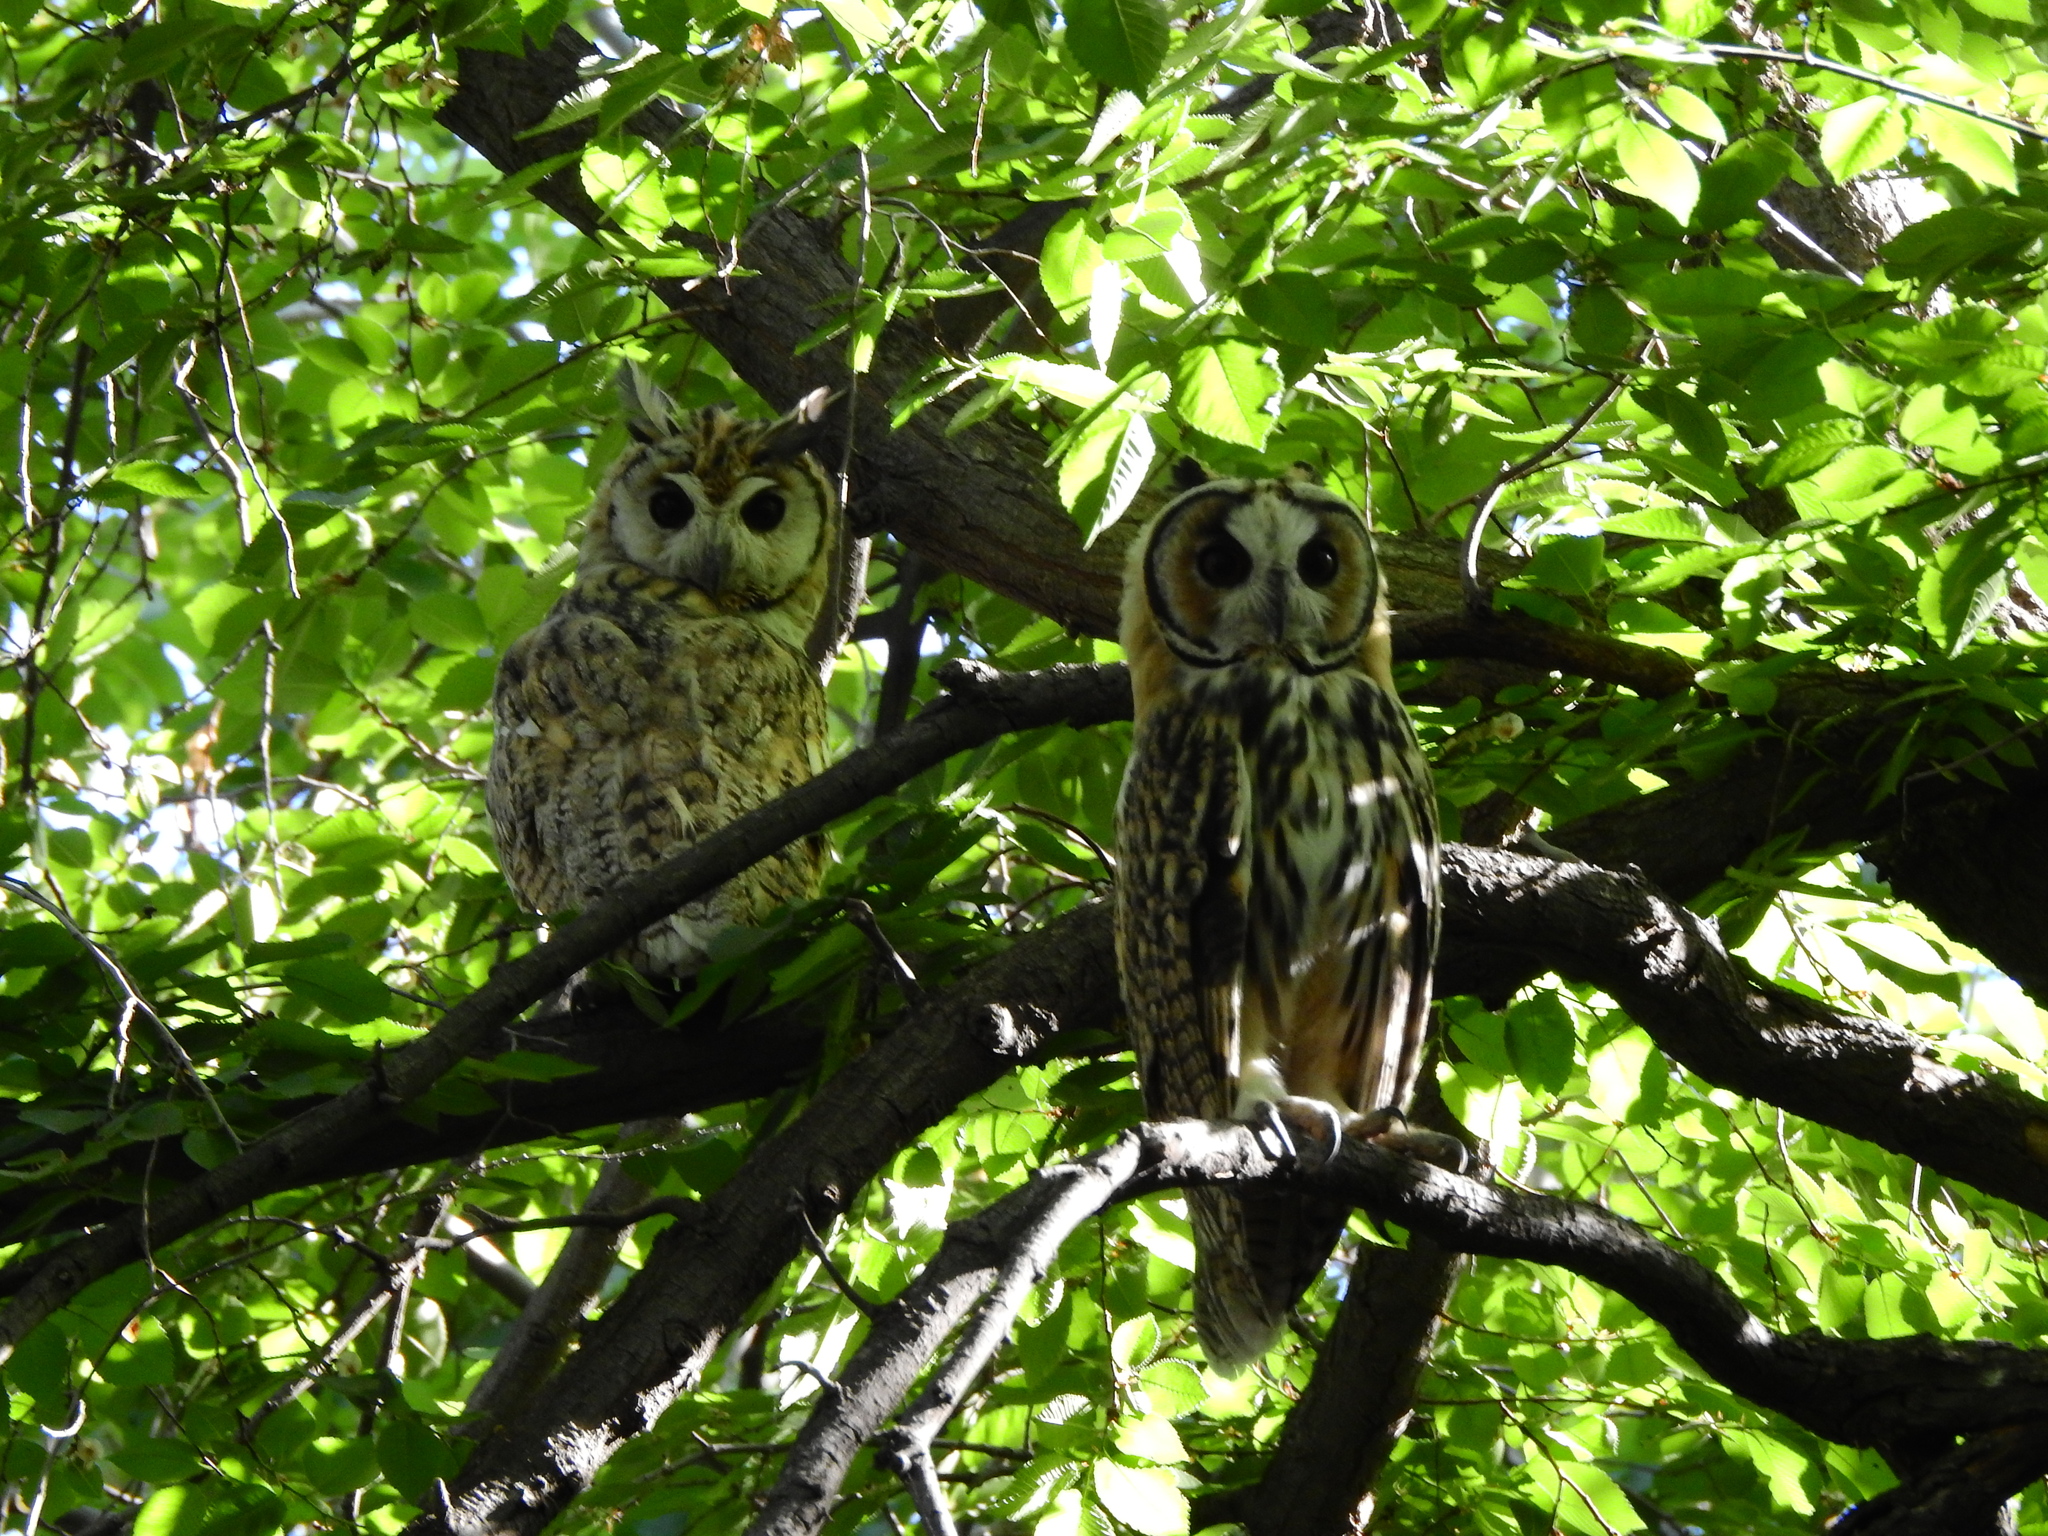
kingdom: Animalia
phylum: Chordata
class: Aves
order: Strigiformes
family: Strigidae
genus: Pseudoscops
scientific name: Pseudoscops clamator
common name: Striped owl
